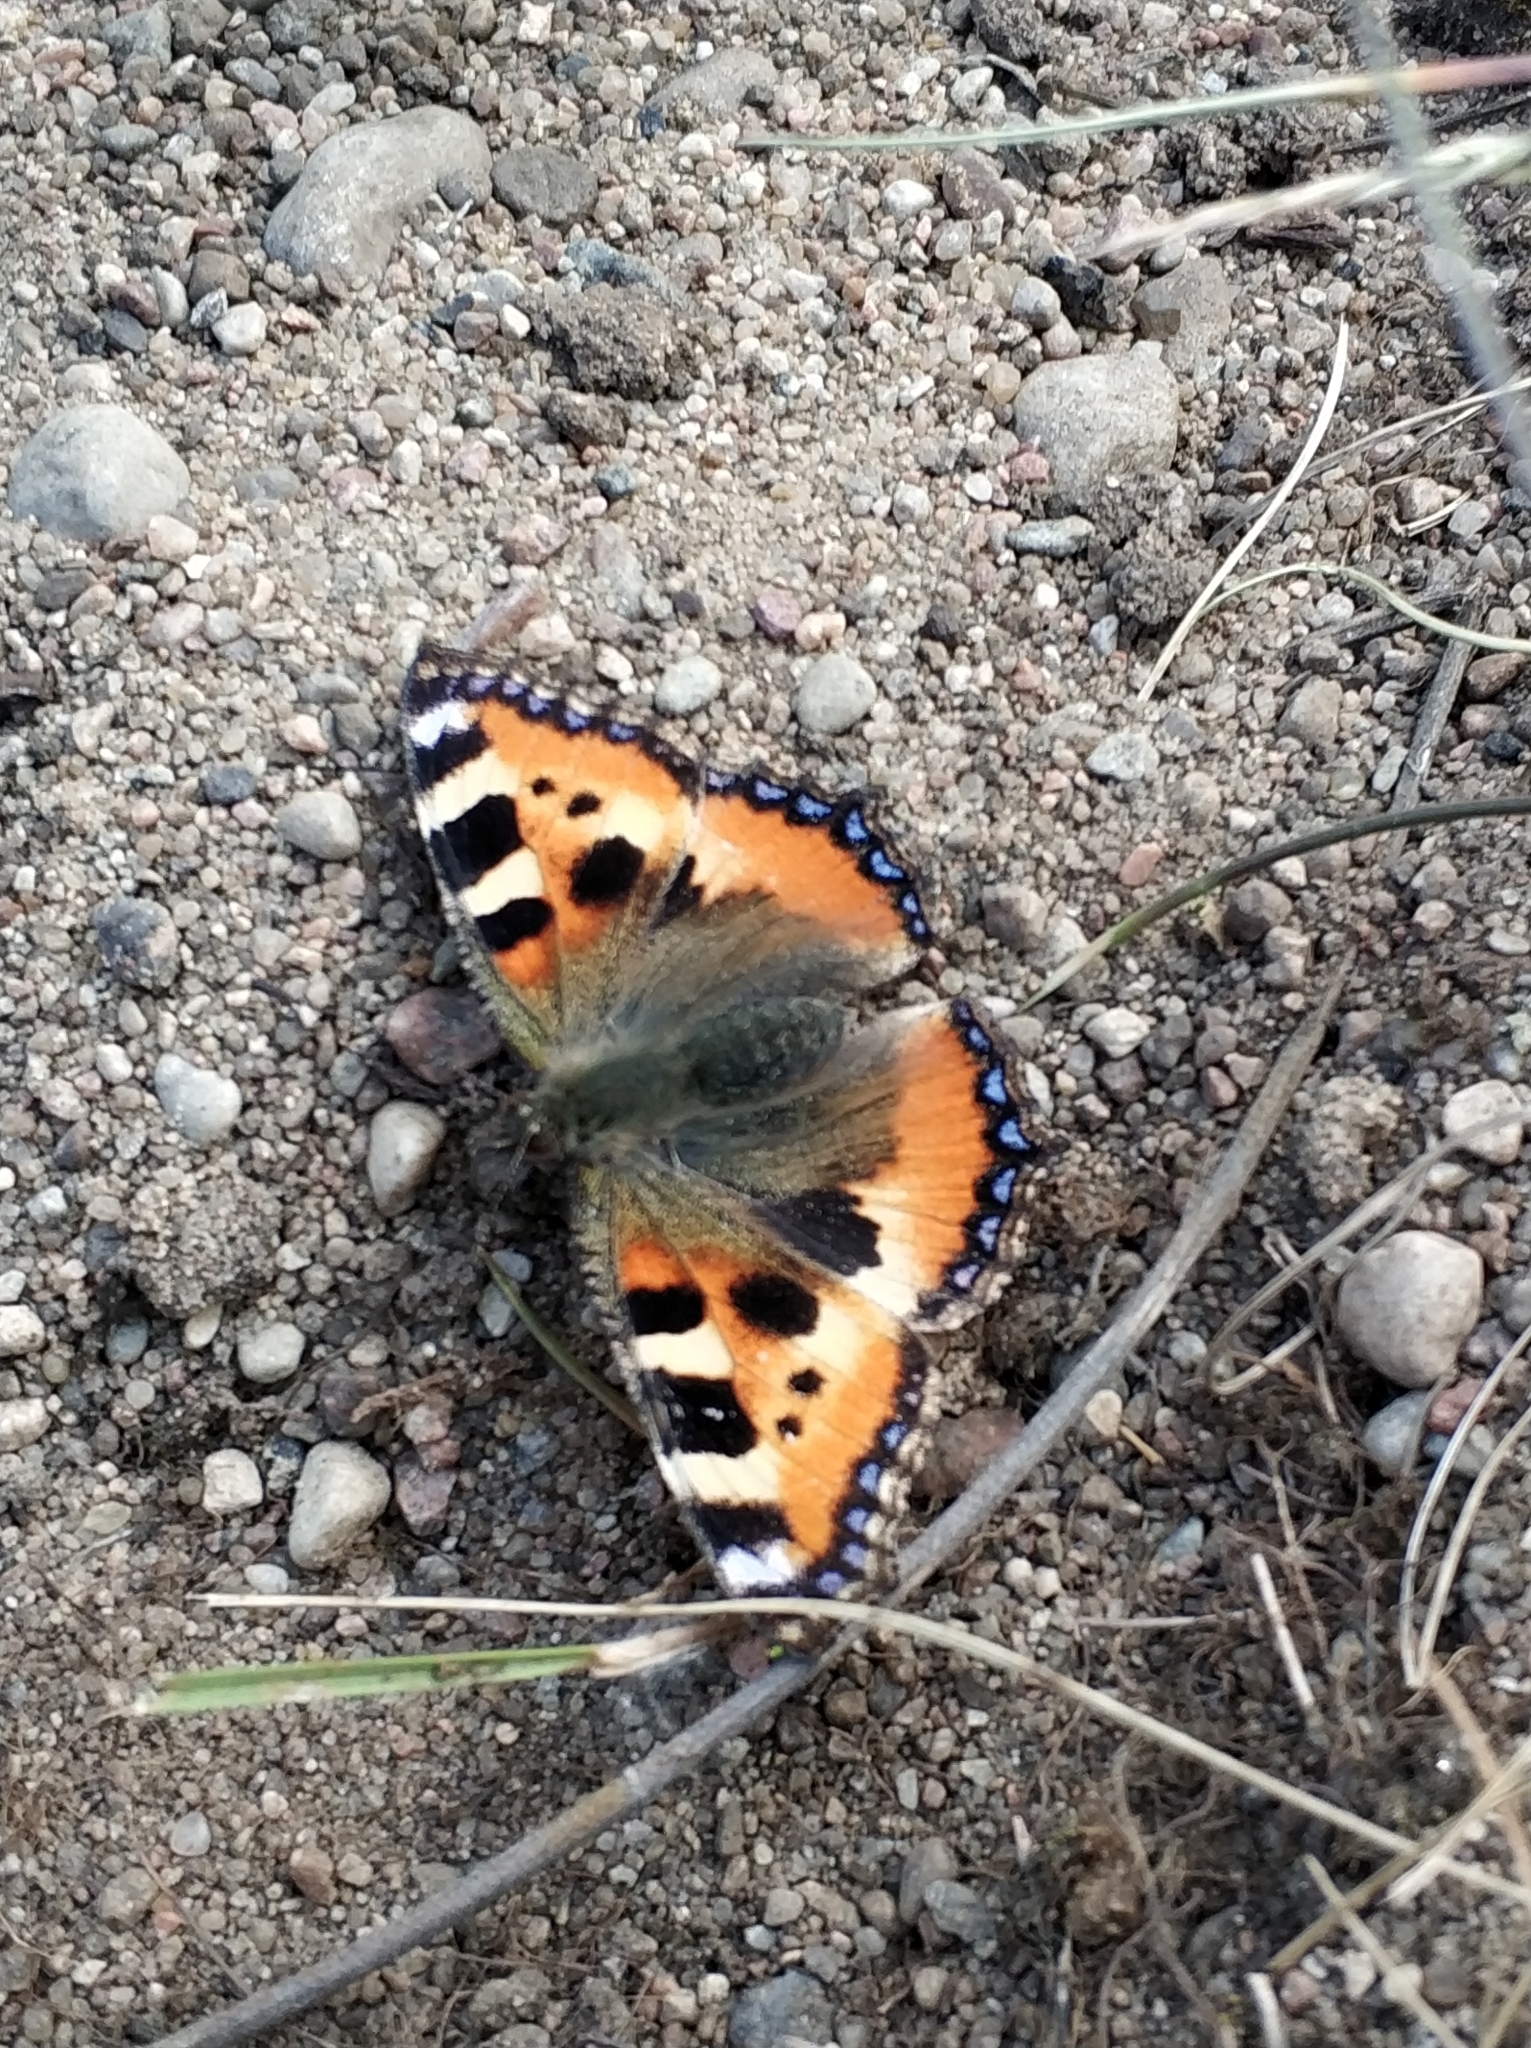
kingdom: Animalia
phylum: Arthropoda
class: Insecta
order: Lepidoptera
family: Nymphalidae
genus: Aglais
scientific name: Aglais urticae
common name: Small tortoiseshell
